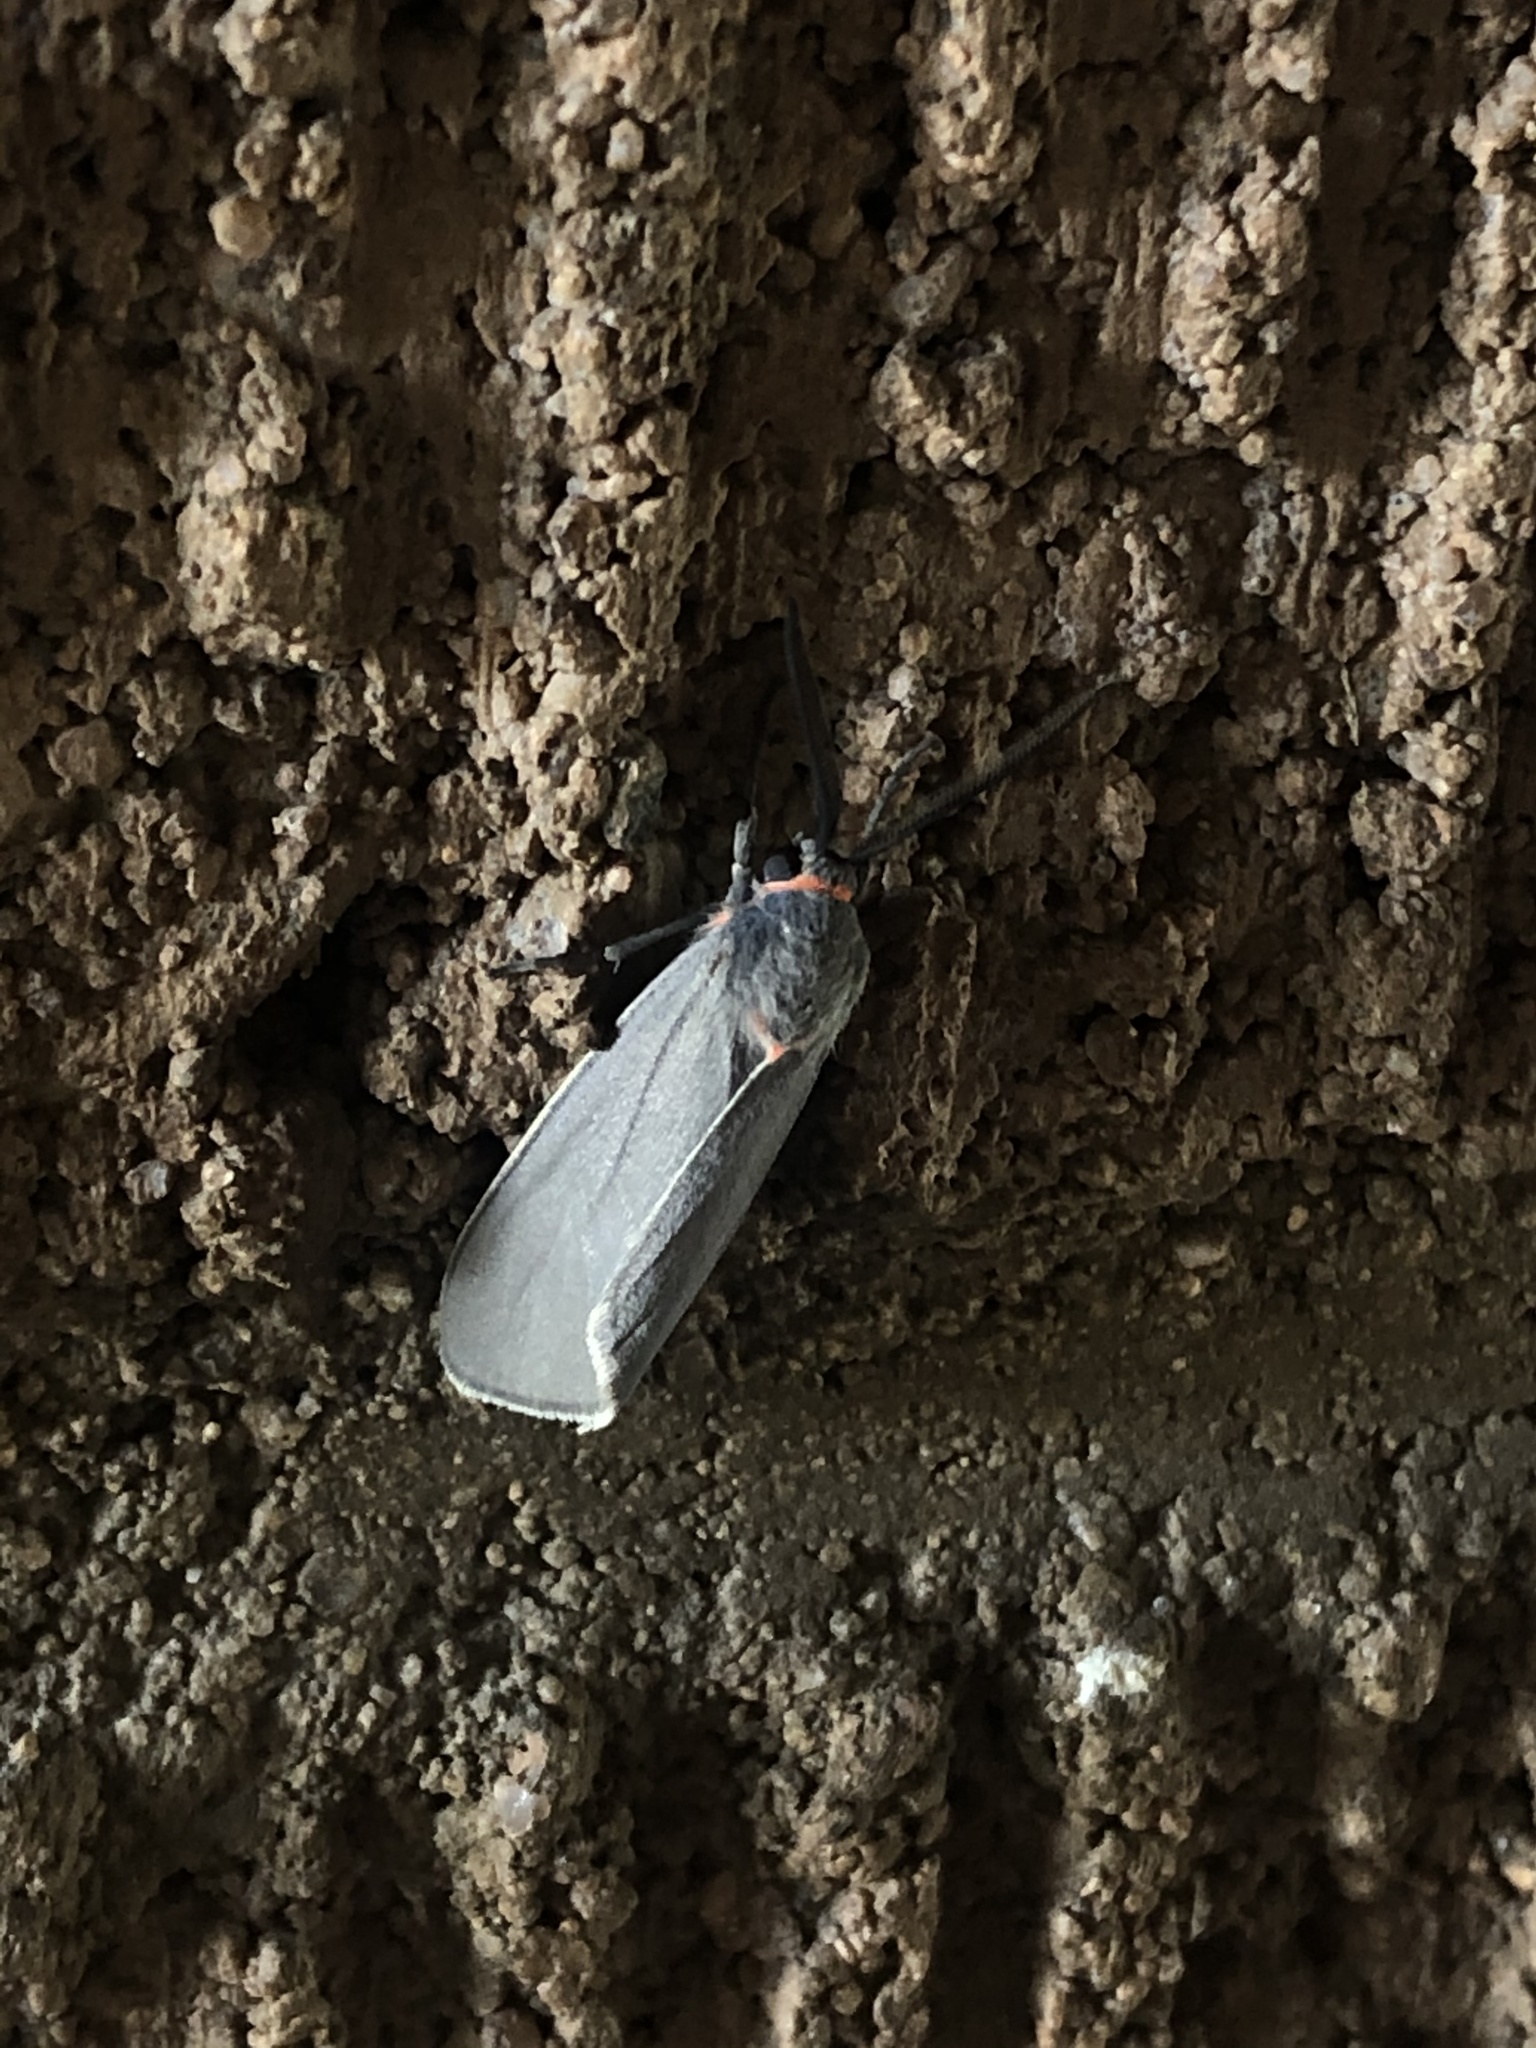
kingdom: Animalia
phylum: Arthropoda
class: Insecta
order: Lepidoptera
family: Erebidae
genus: Pygarctia
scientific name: Pygarctia murina
